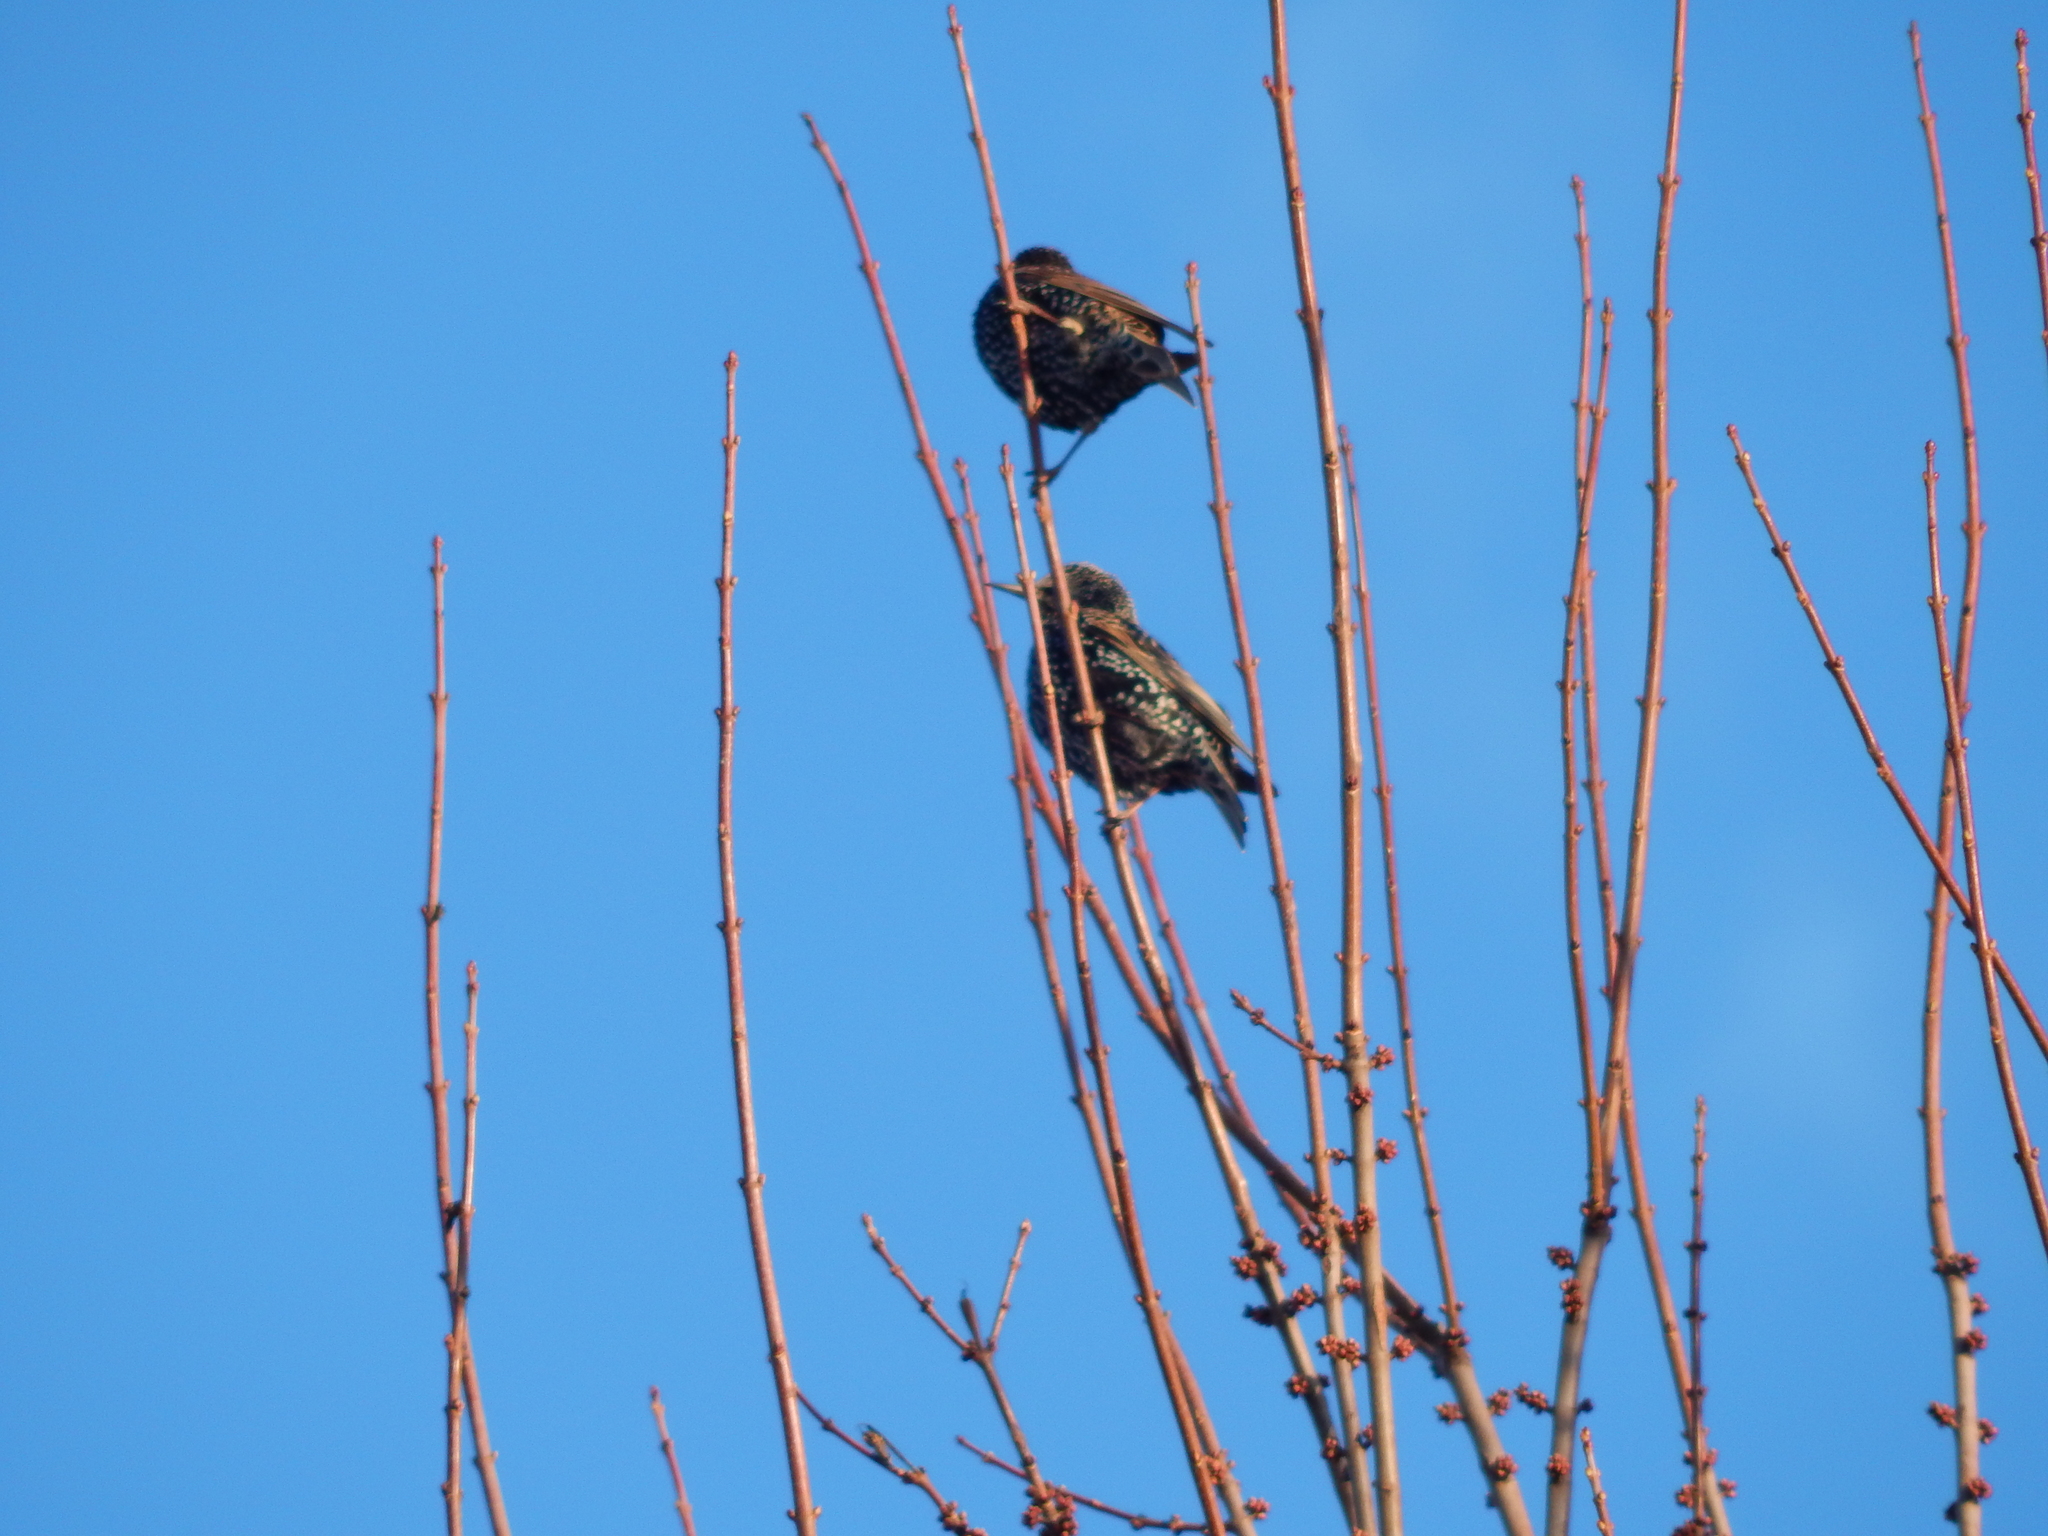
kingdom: Animalia
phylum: Chordata
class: Aves
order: Passeriformes
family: Sturnidae
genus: Sturnus
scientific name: Sturnus vulgaris
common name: Common starling
